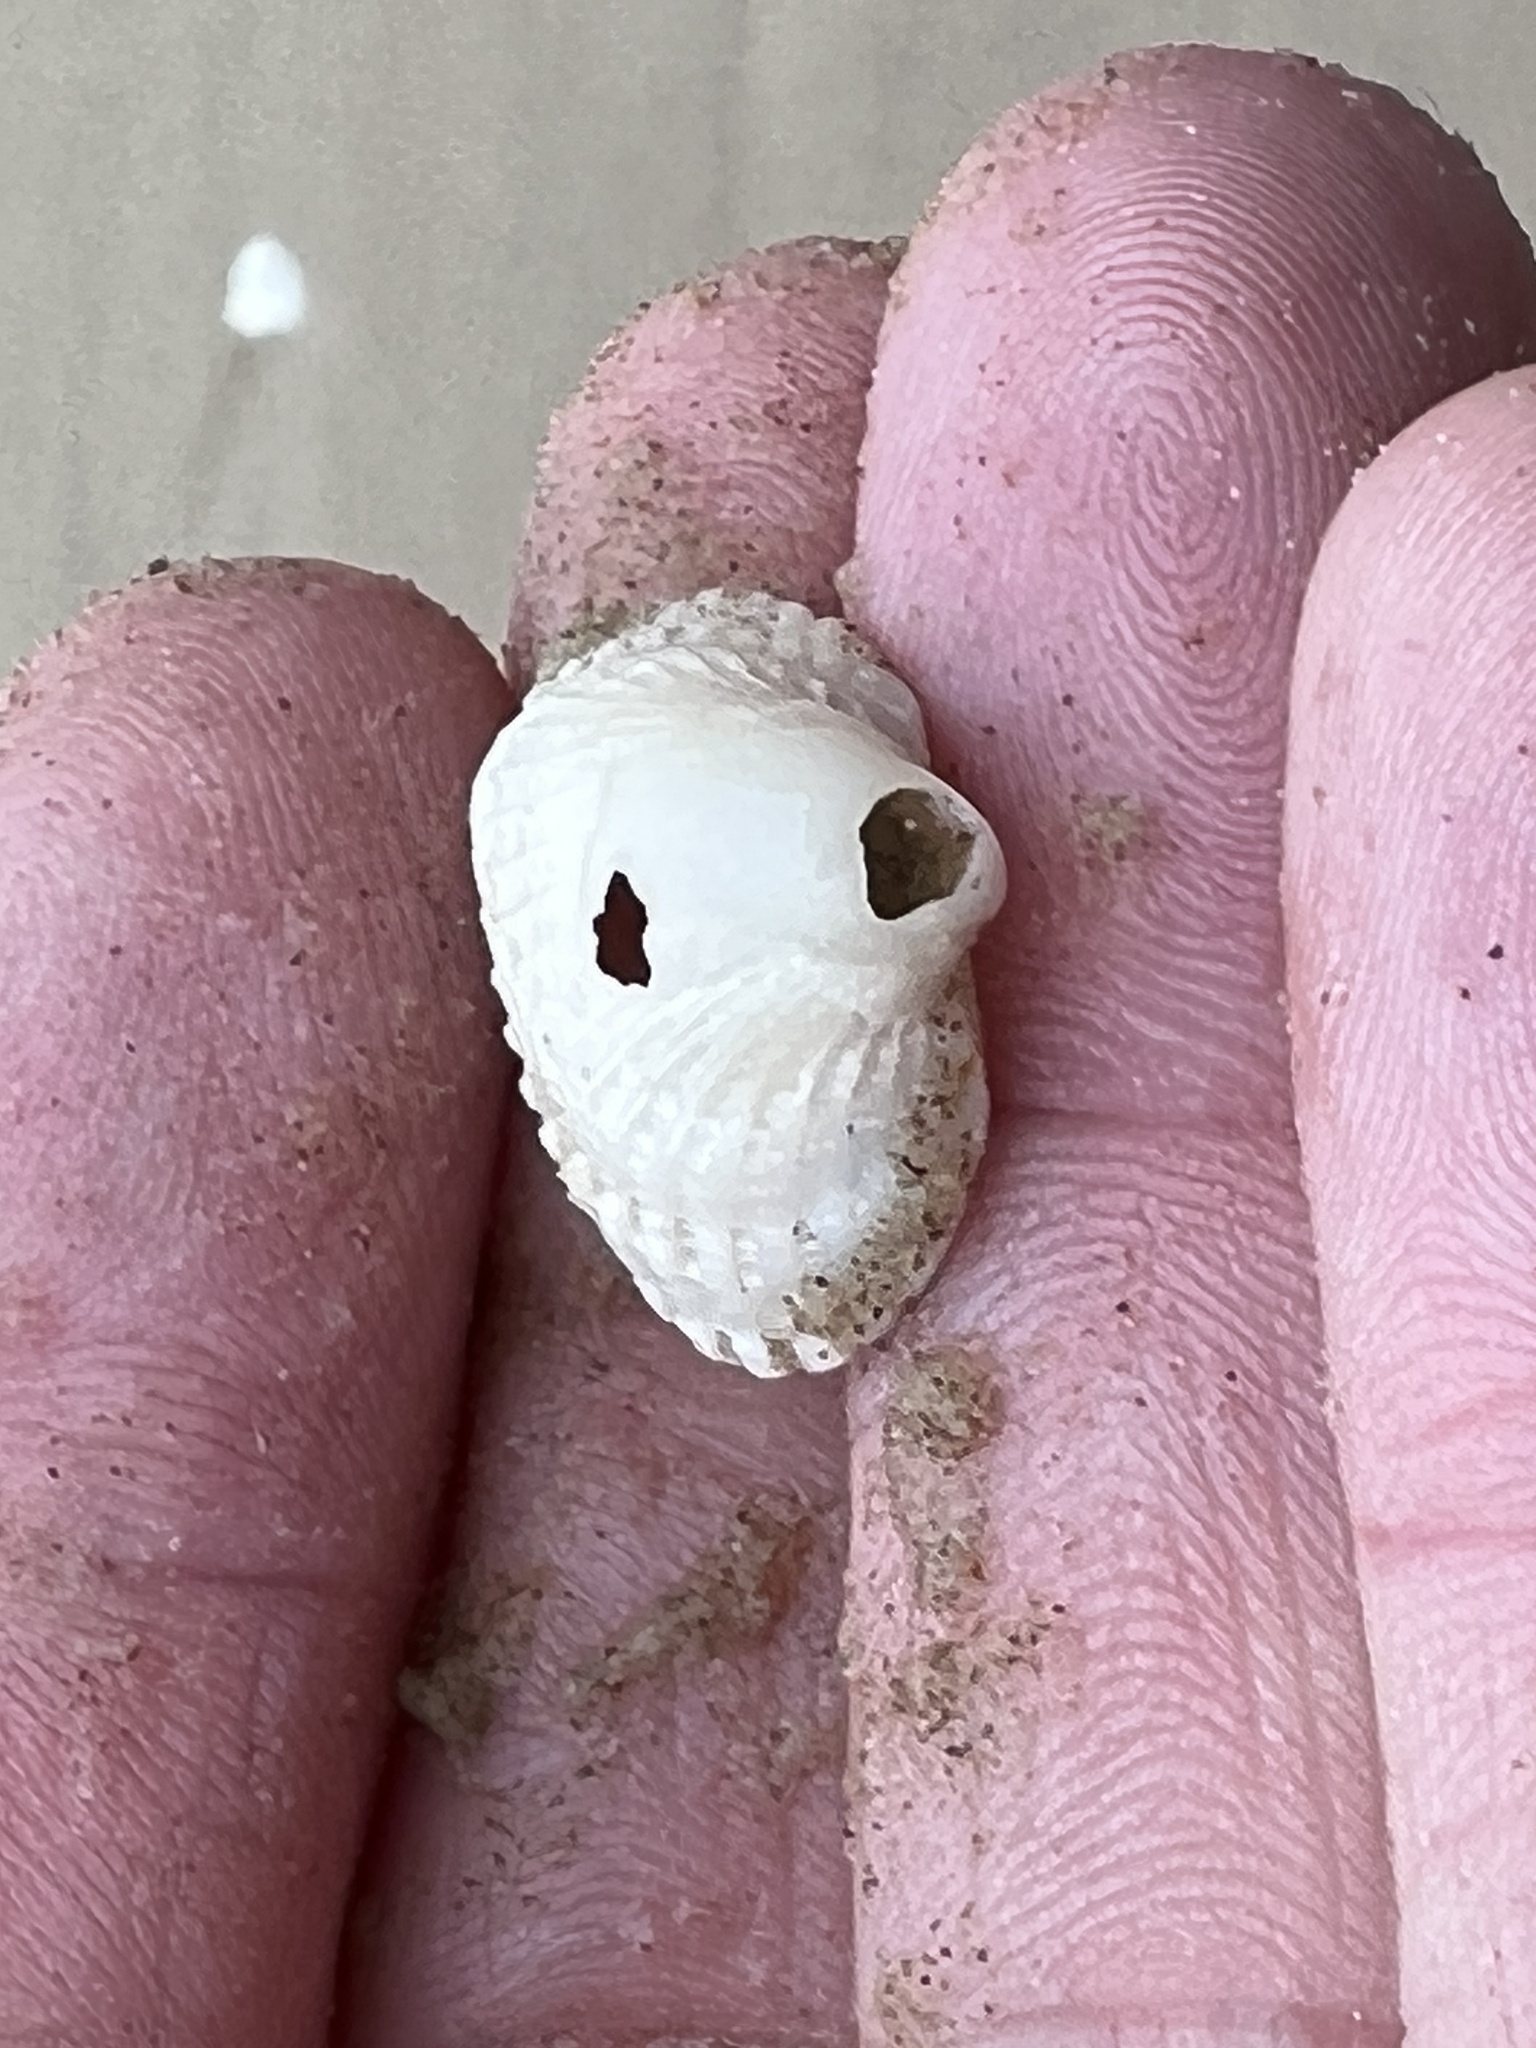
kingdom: Animalia
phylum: Mollusca
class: Bivalvia
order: Arcida
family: Arcidae
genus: Anadara
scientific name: Anadara chemnitzii
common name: Chemnitz's triangular ark
